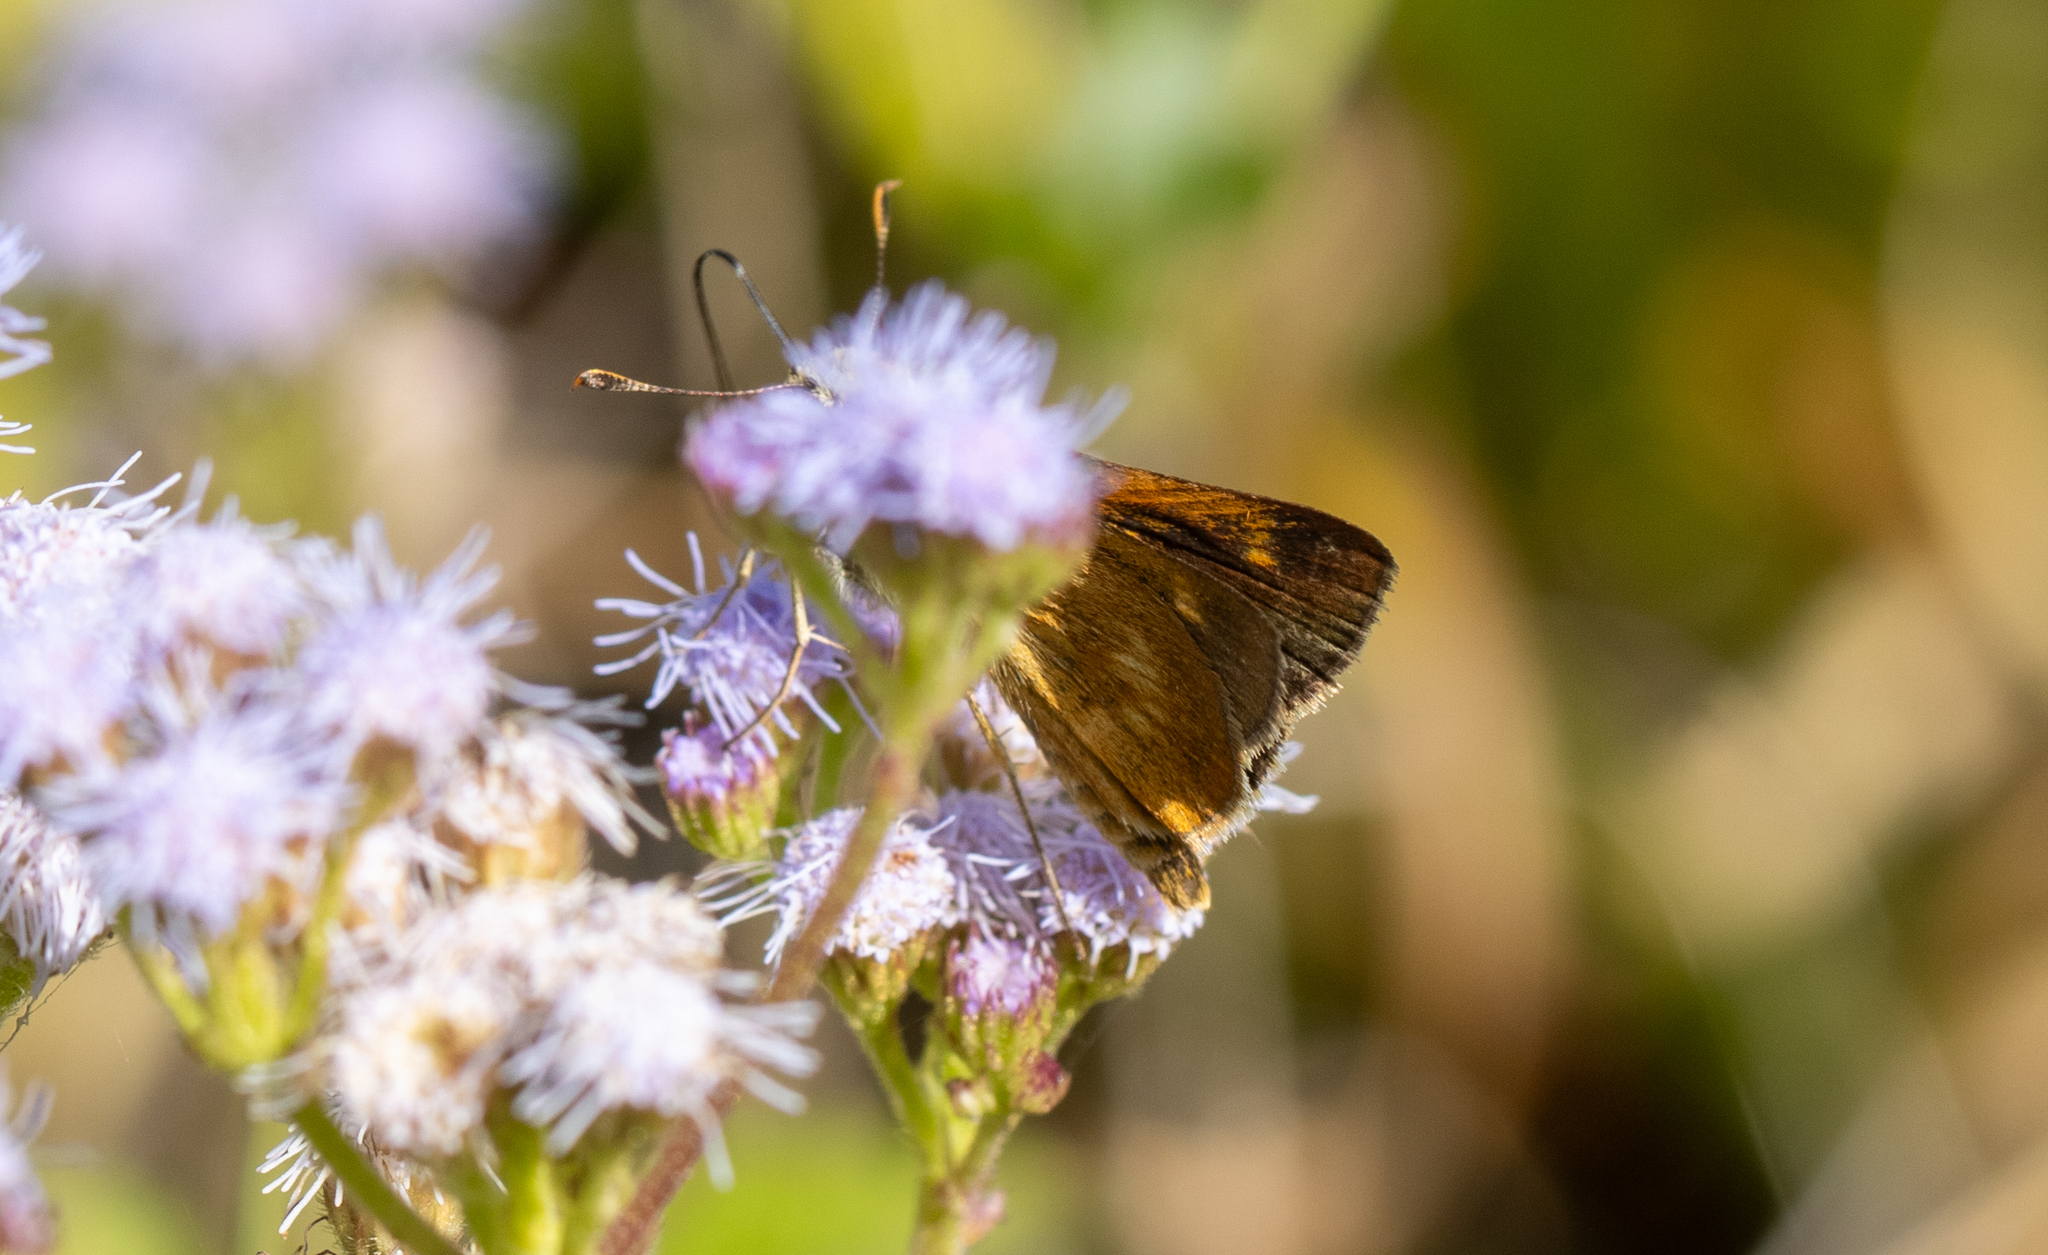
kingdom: Animalia
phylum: Arthropoda
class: Insecta
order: Lepidoptera
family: Hesperiidae
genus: Polites
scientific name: Polites otho
